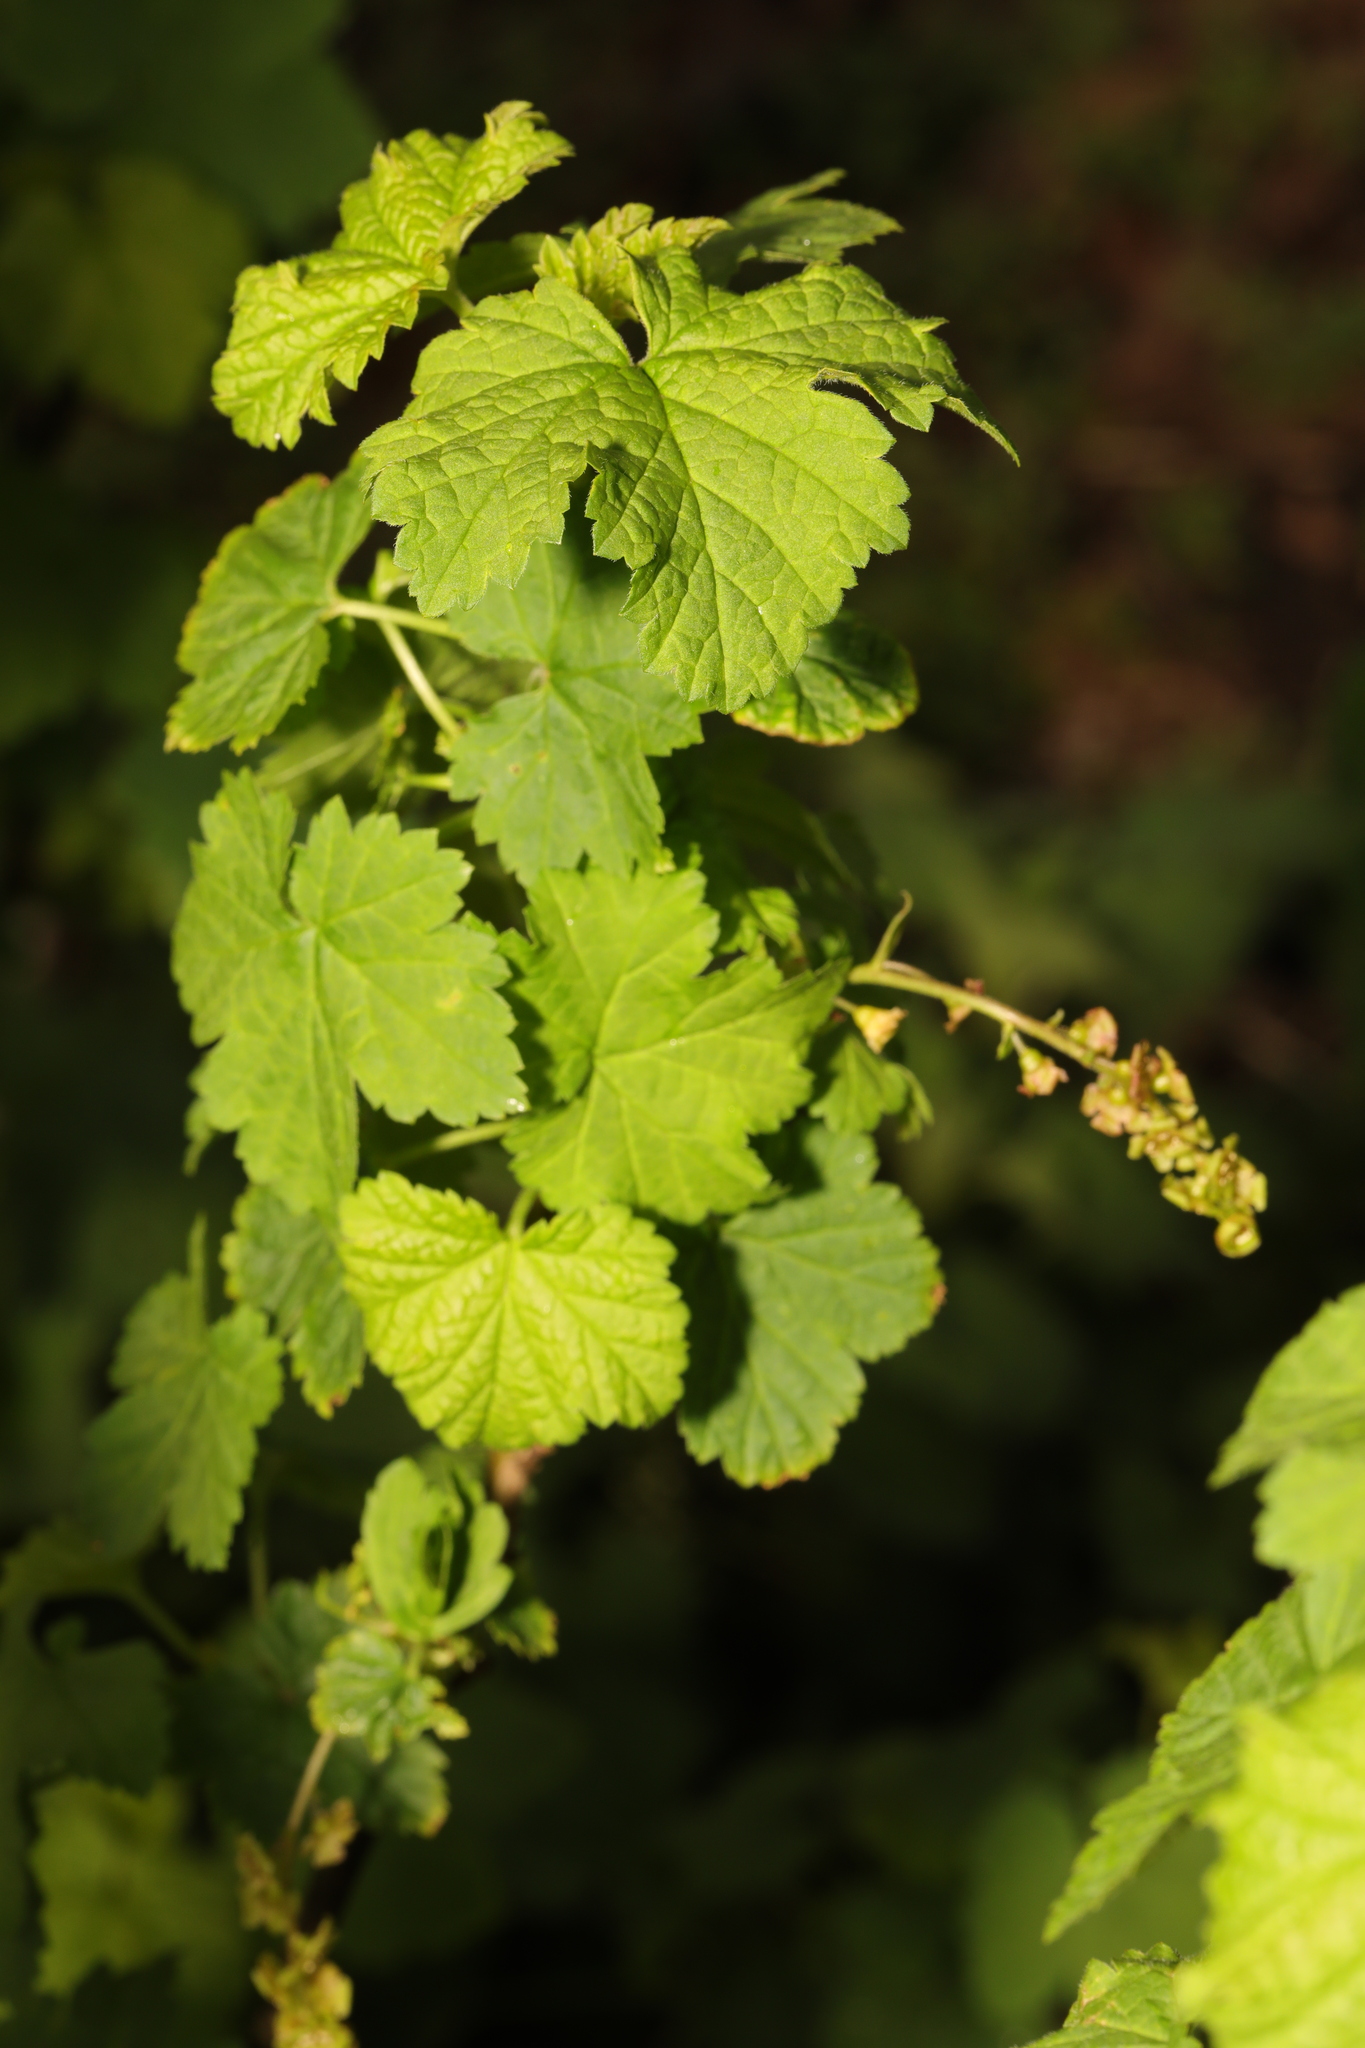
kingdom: Plantae
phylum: Tracheophyta
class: Magnoliopsida
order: Saxifragales
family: Grossulariaceae
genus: Ribes
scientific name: Ribes rubrum
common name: Red currant
